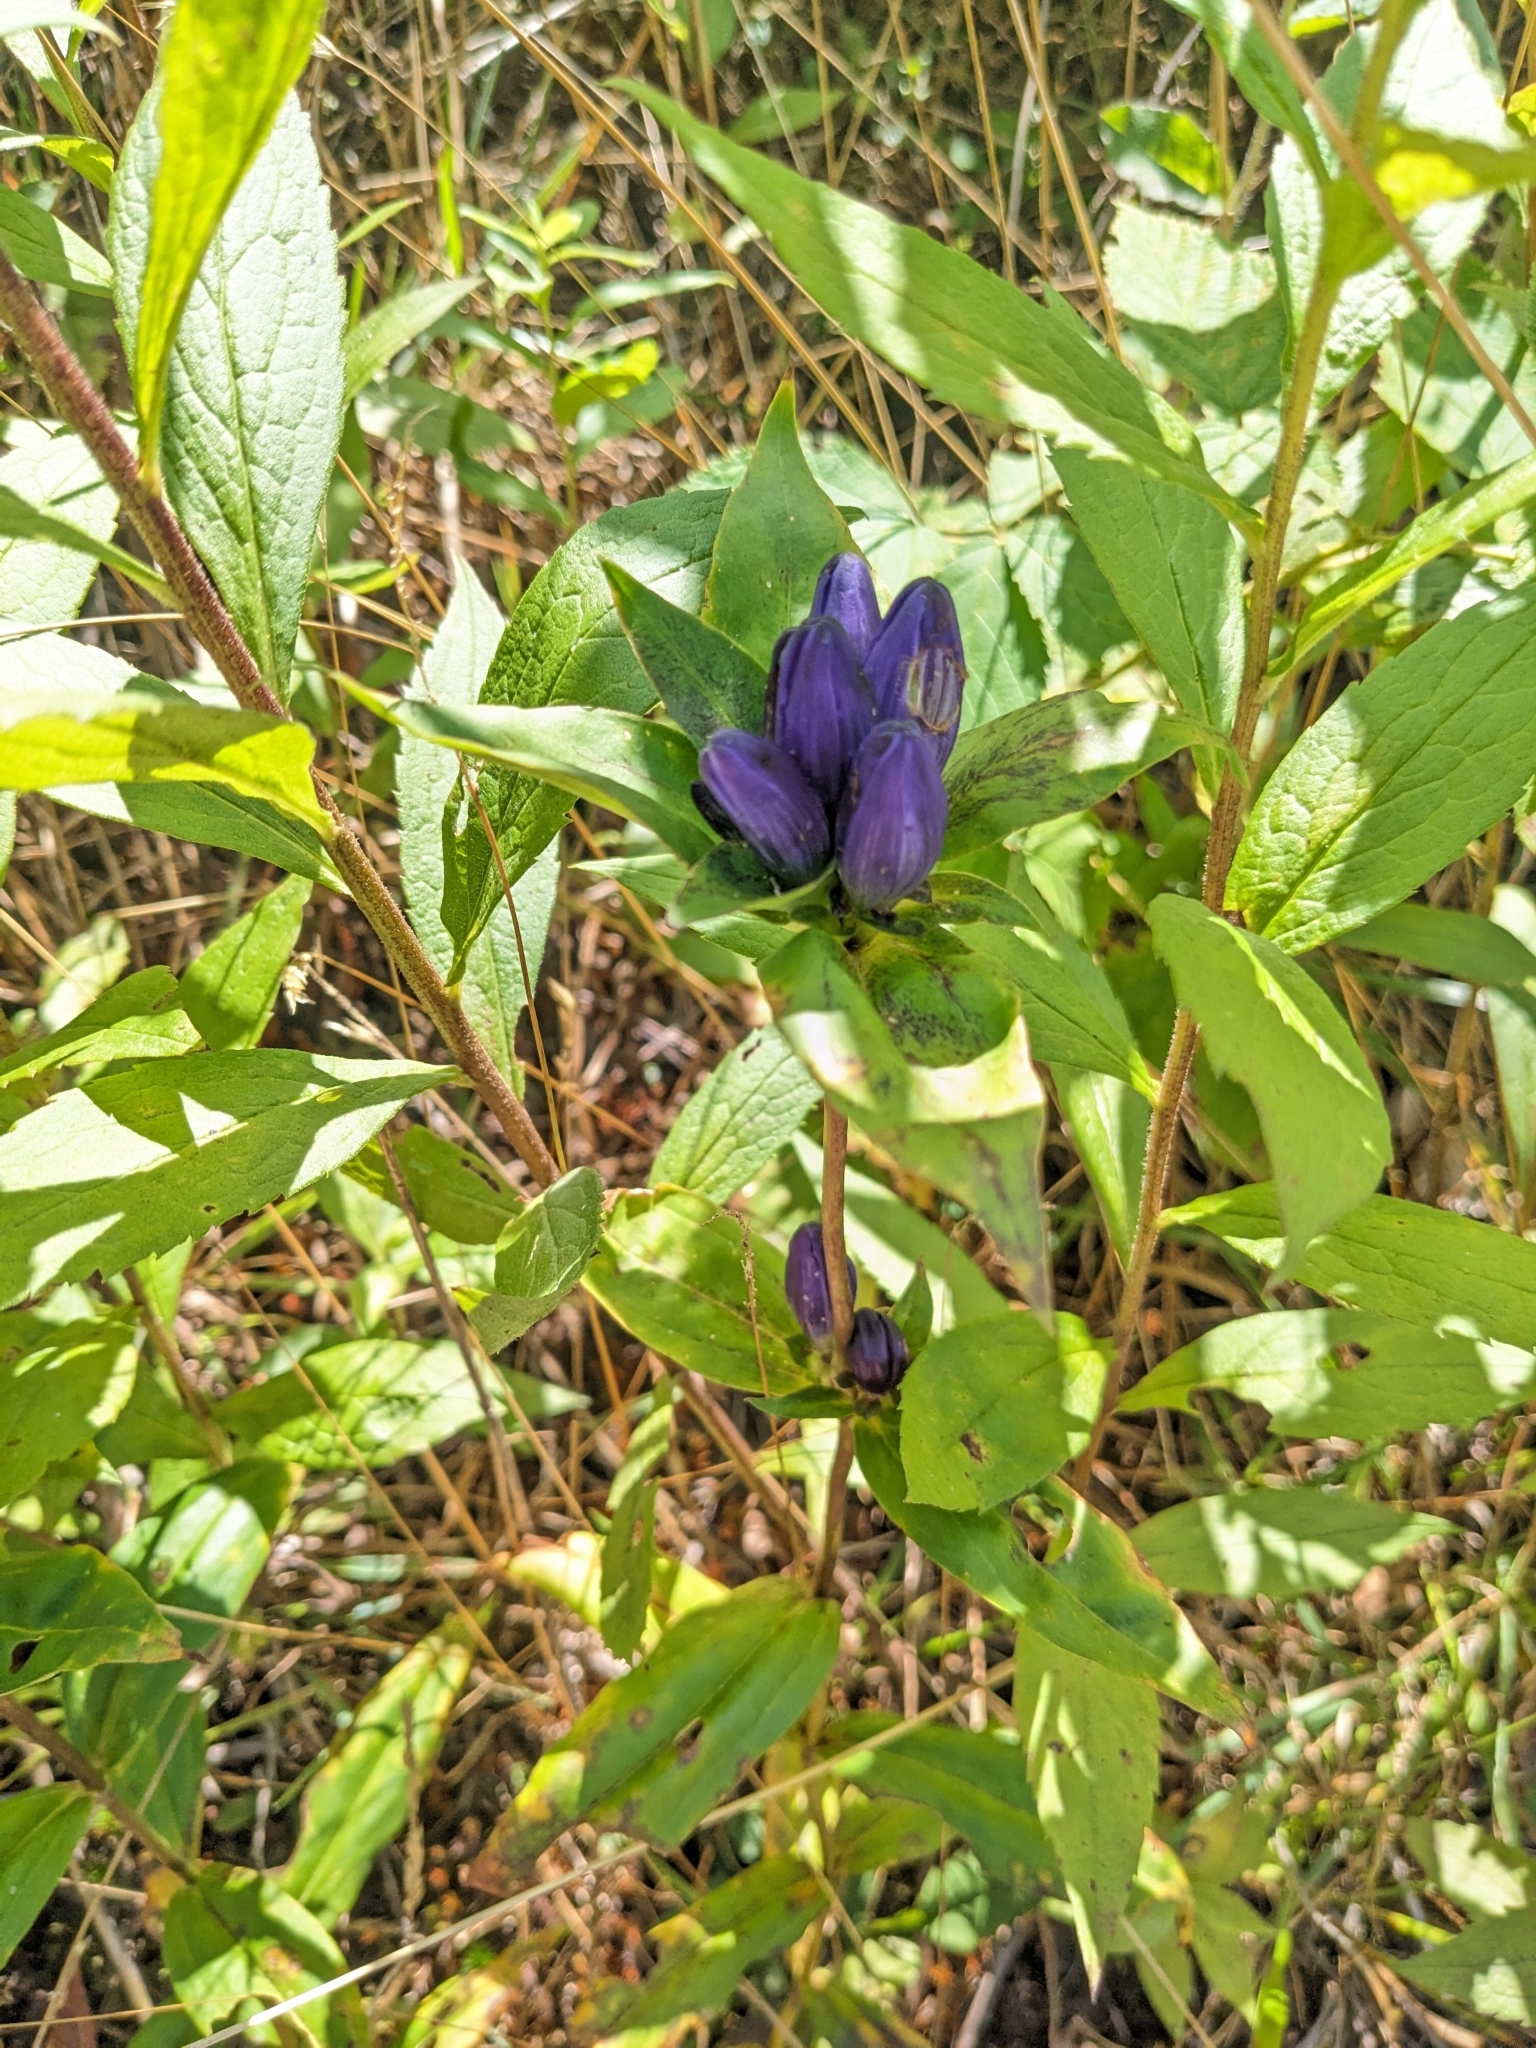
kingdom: Plantae
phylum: Tracheophyta
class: Magnoliopsida
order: Gentianales
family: Gentianaceae
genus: Gentiana
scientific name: Gentiana clausa
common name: Blind gentian
